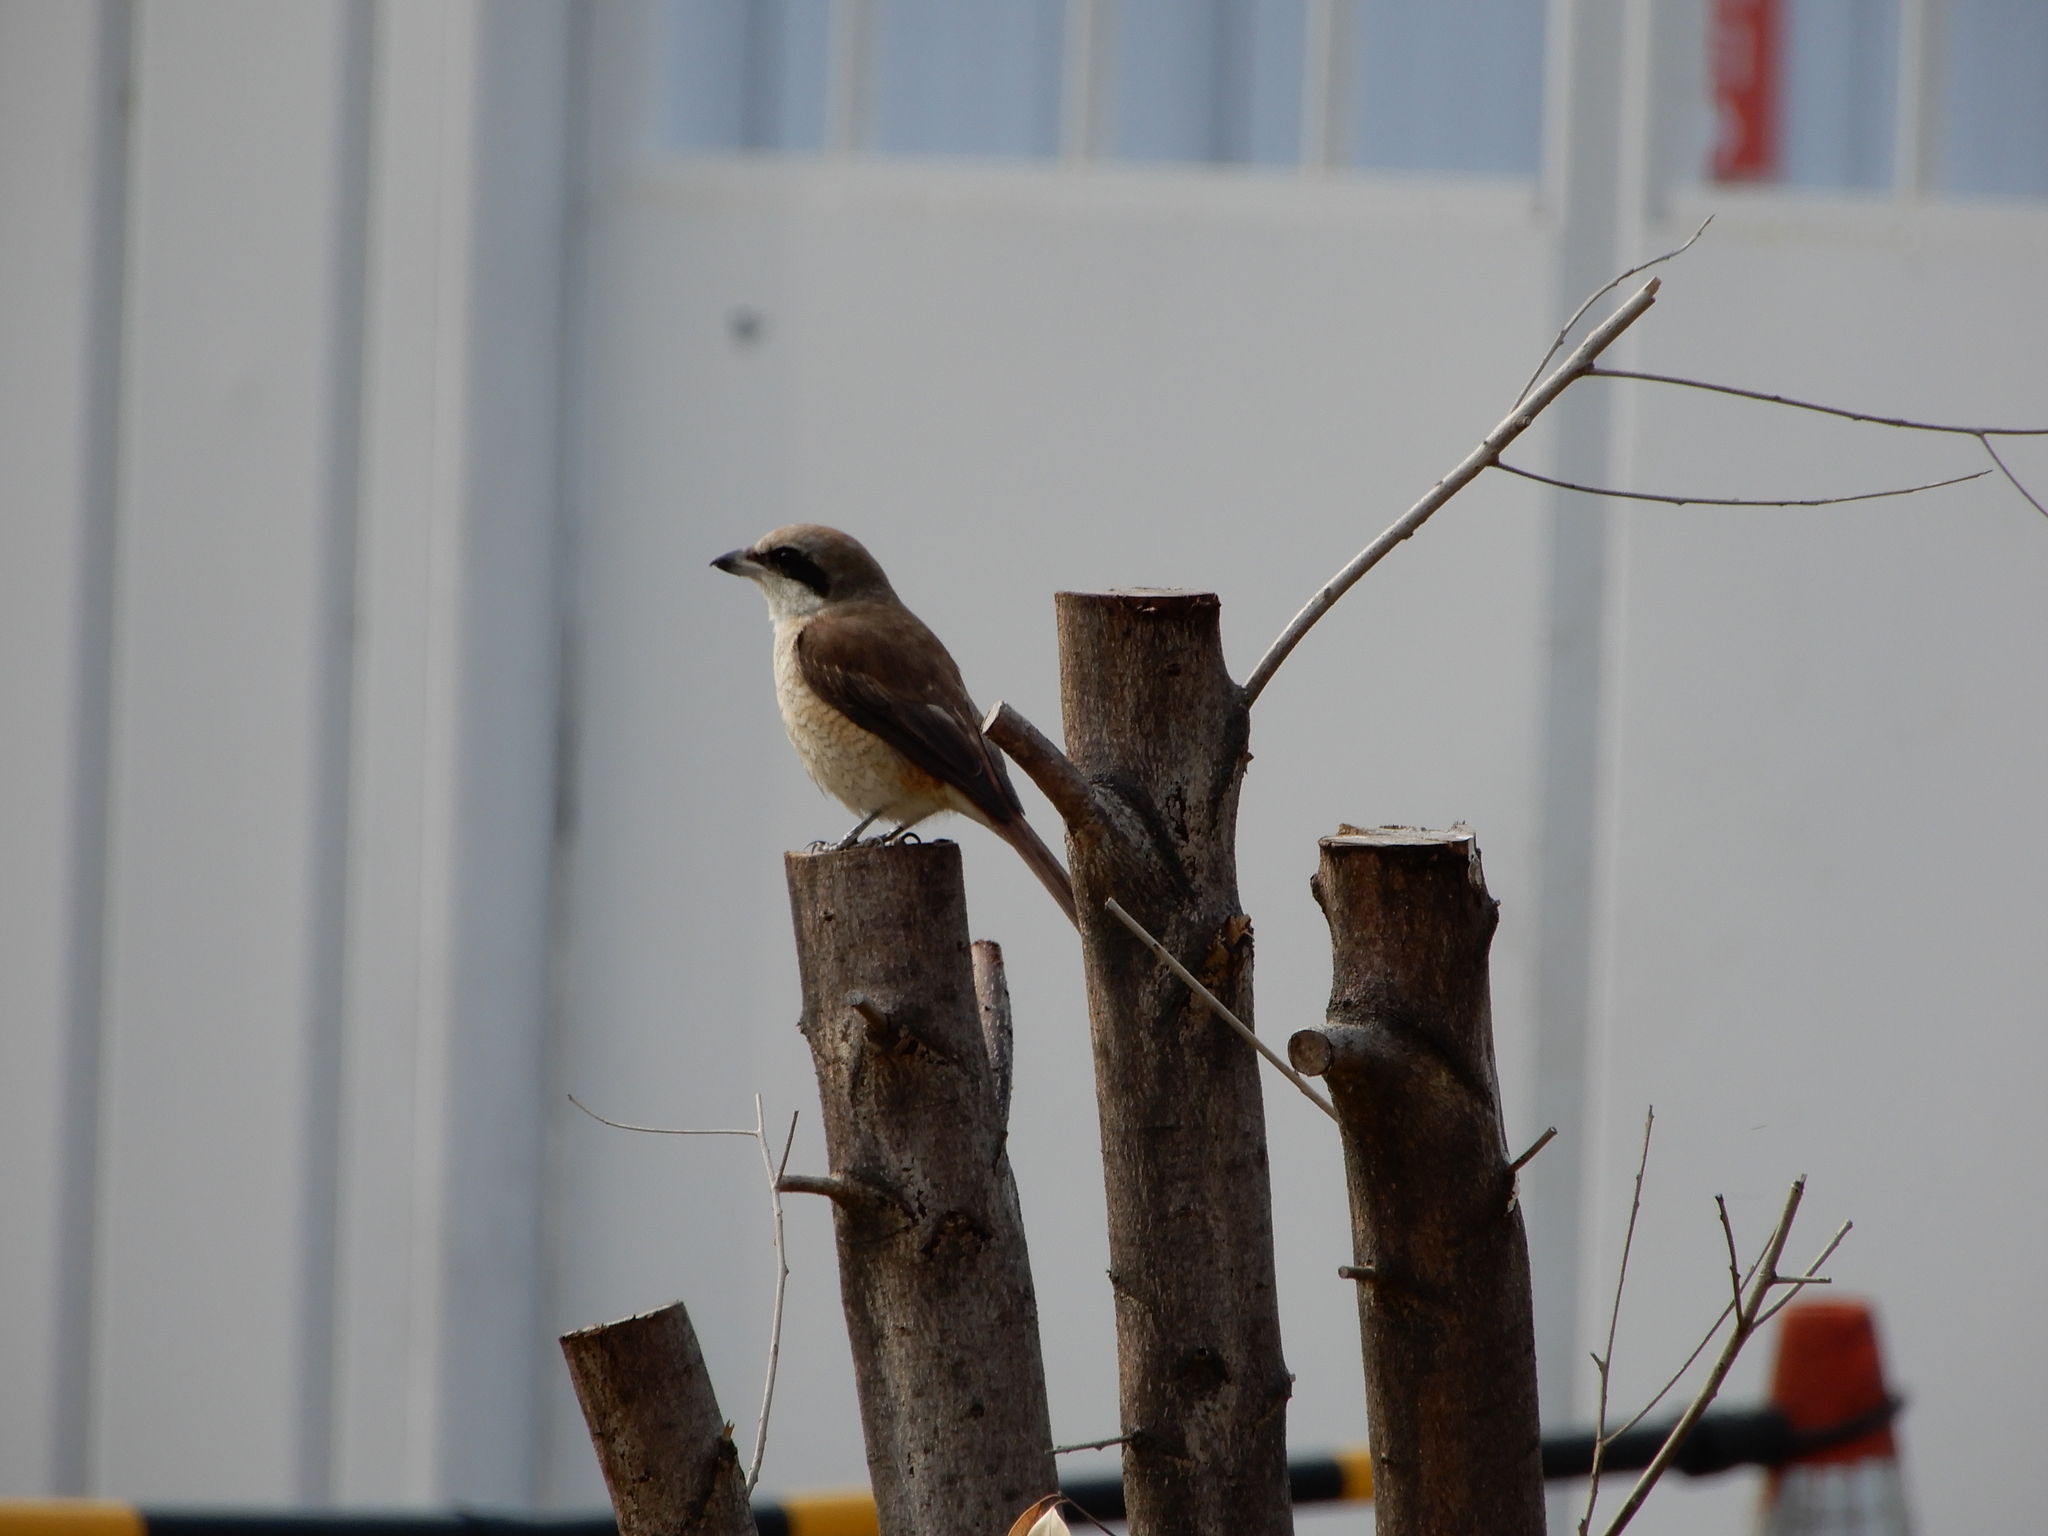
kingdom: Animalia
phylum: Chordata
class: Aves
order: Passeriformes
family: Laniidae
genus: Lanius
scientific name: Lanius cristatus
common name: Brown shrike
